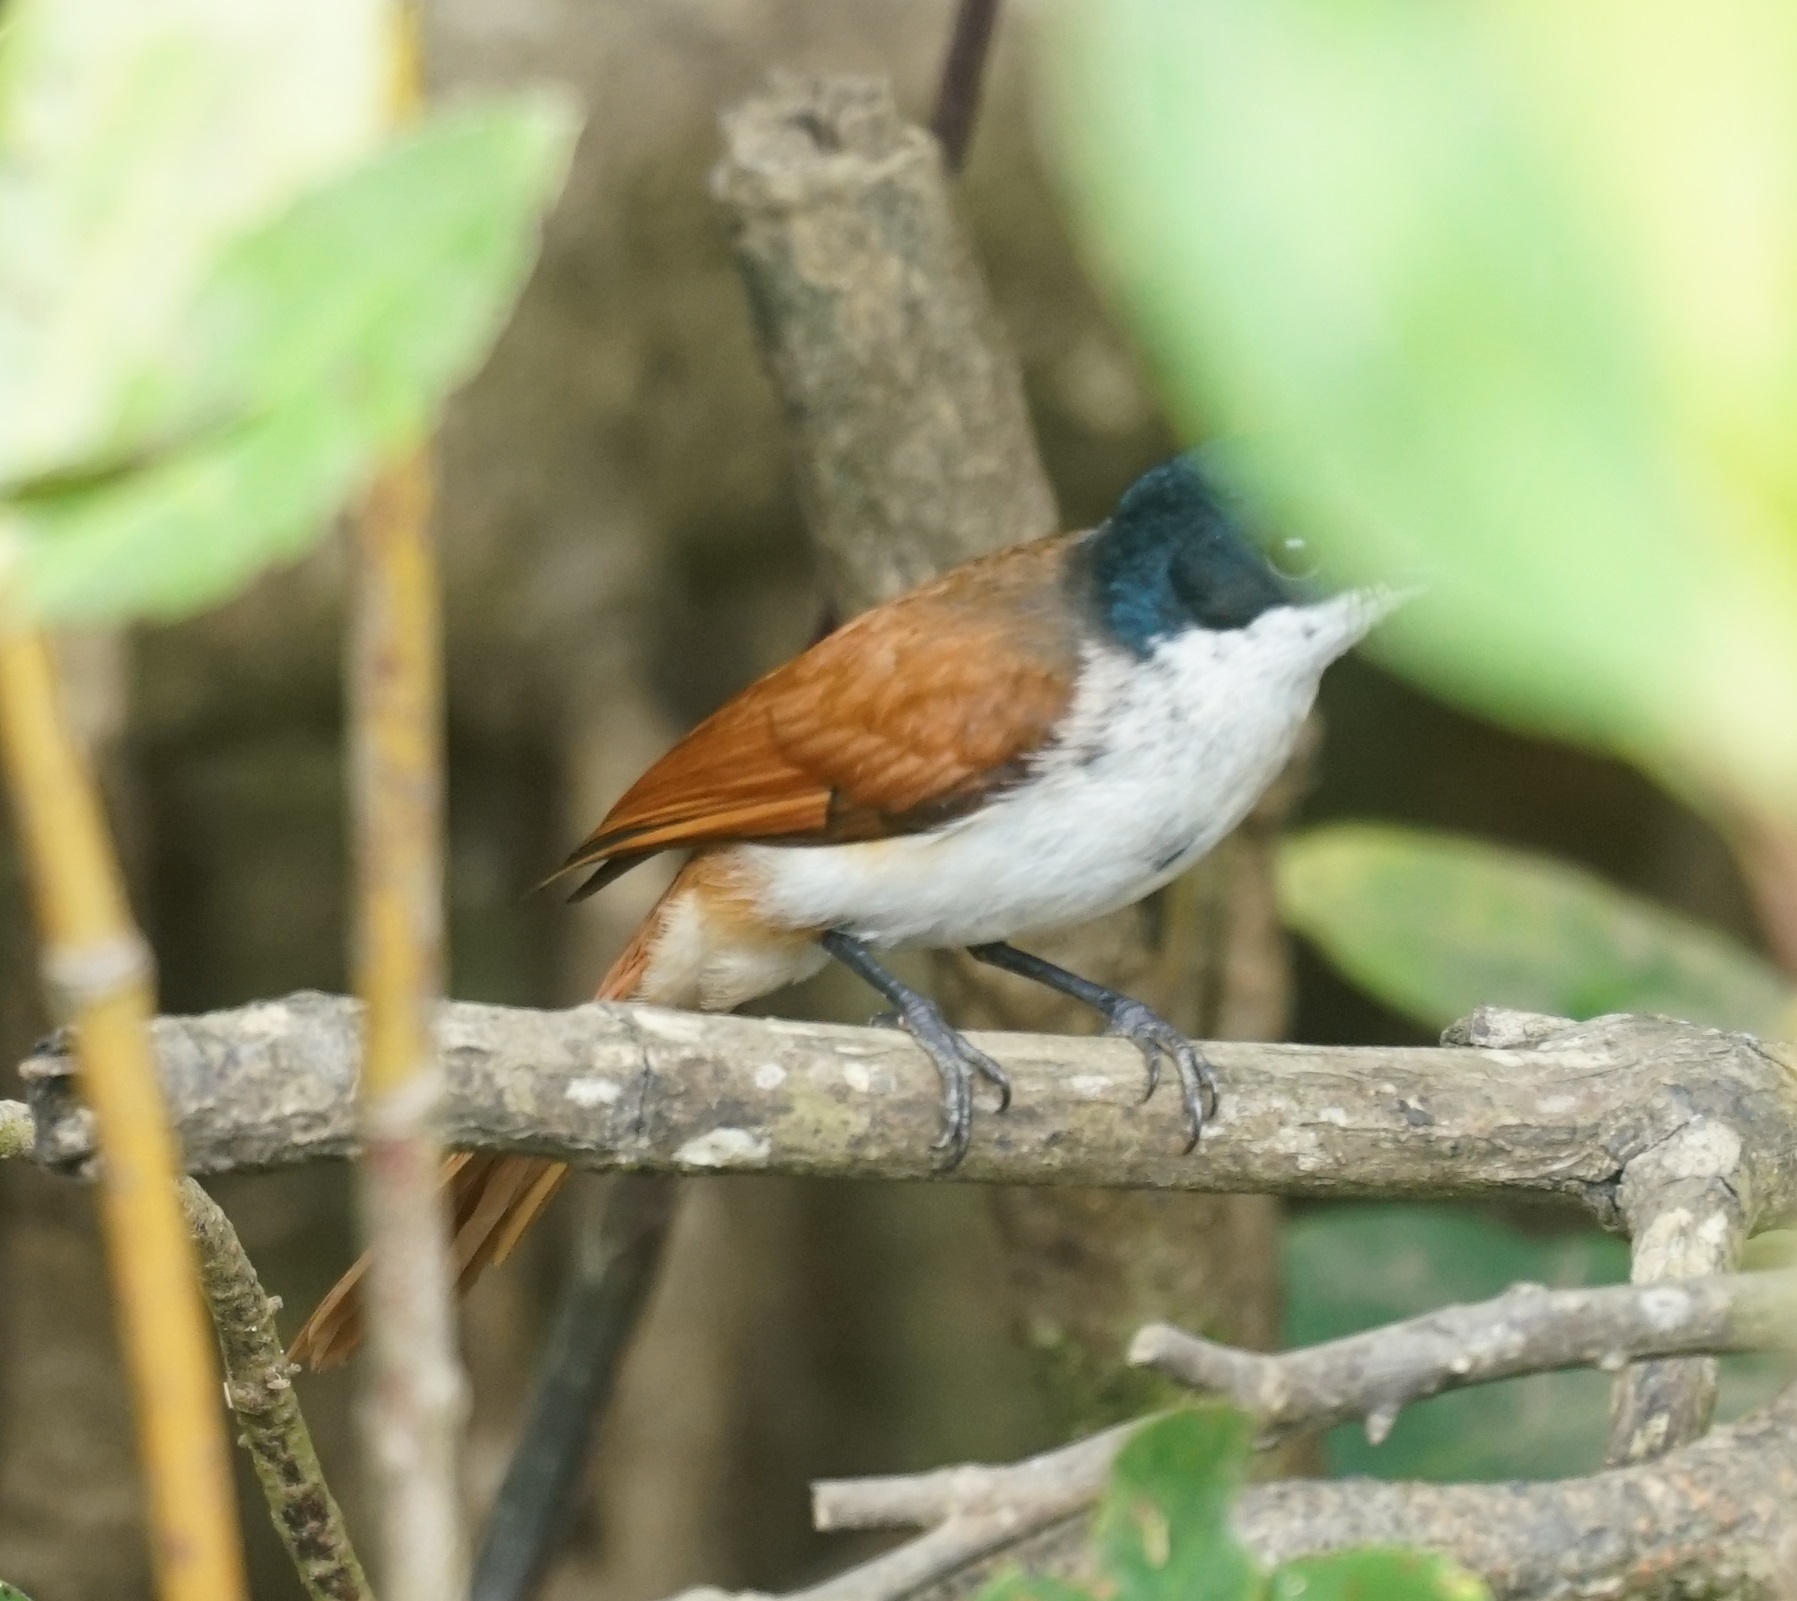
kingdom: Animalia
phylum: Chordata
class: Aves
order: Passeriformes
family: Monarchidae
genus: Myiagra
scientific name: Myiagra alecto
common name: Shining flycatcher
